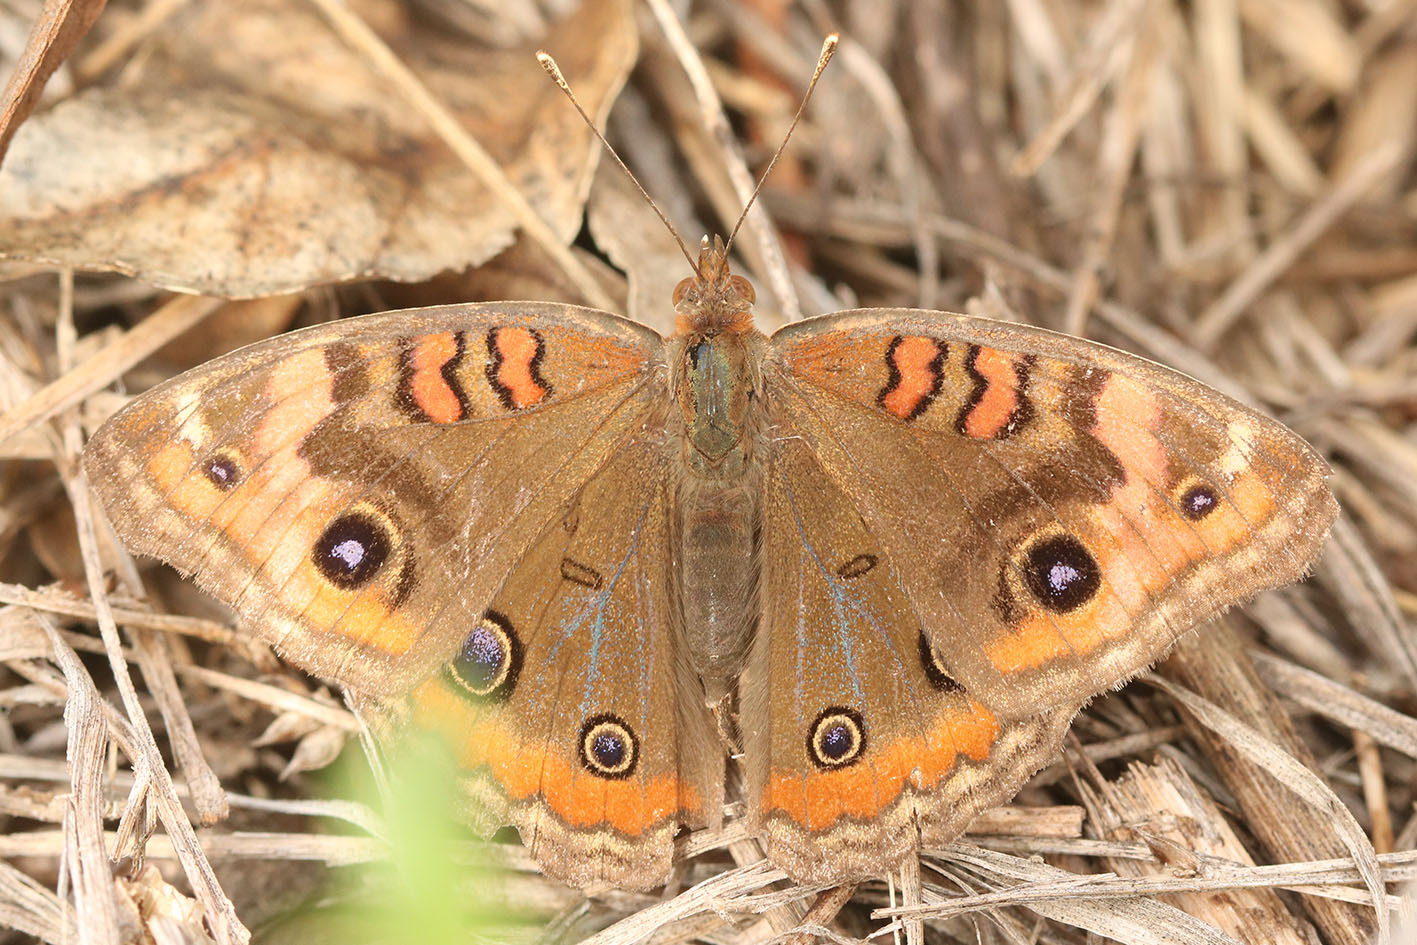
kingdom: Animalia
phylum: Arthropoda
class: Insecta
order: Lepidoptera
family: Nymphalidae
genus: Junonia
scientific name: Junonia lavinia
